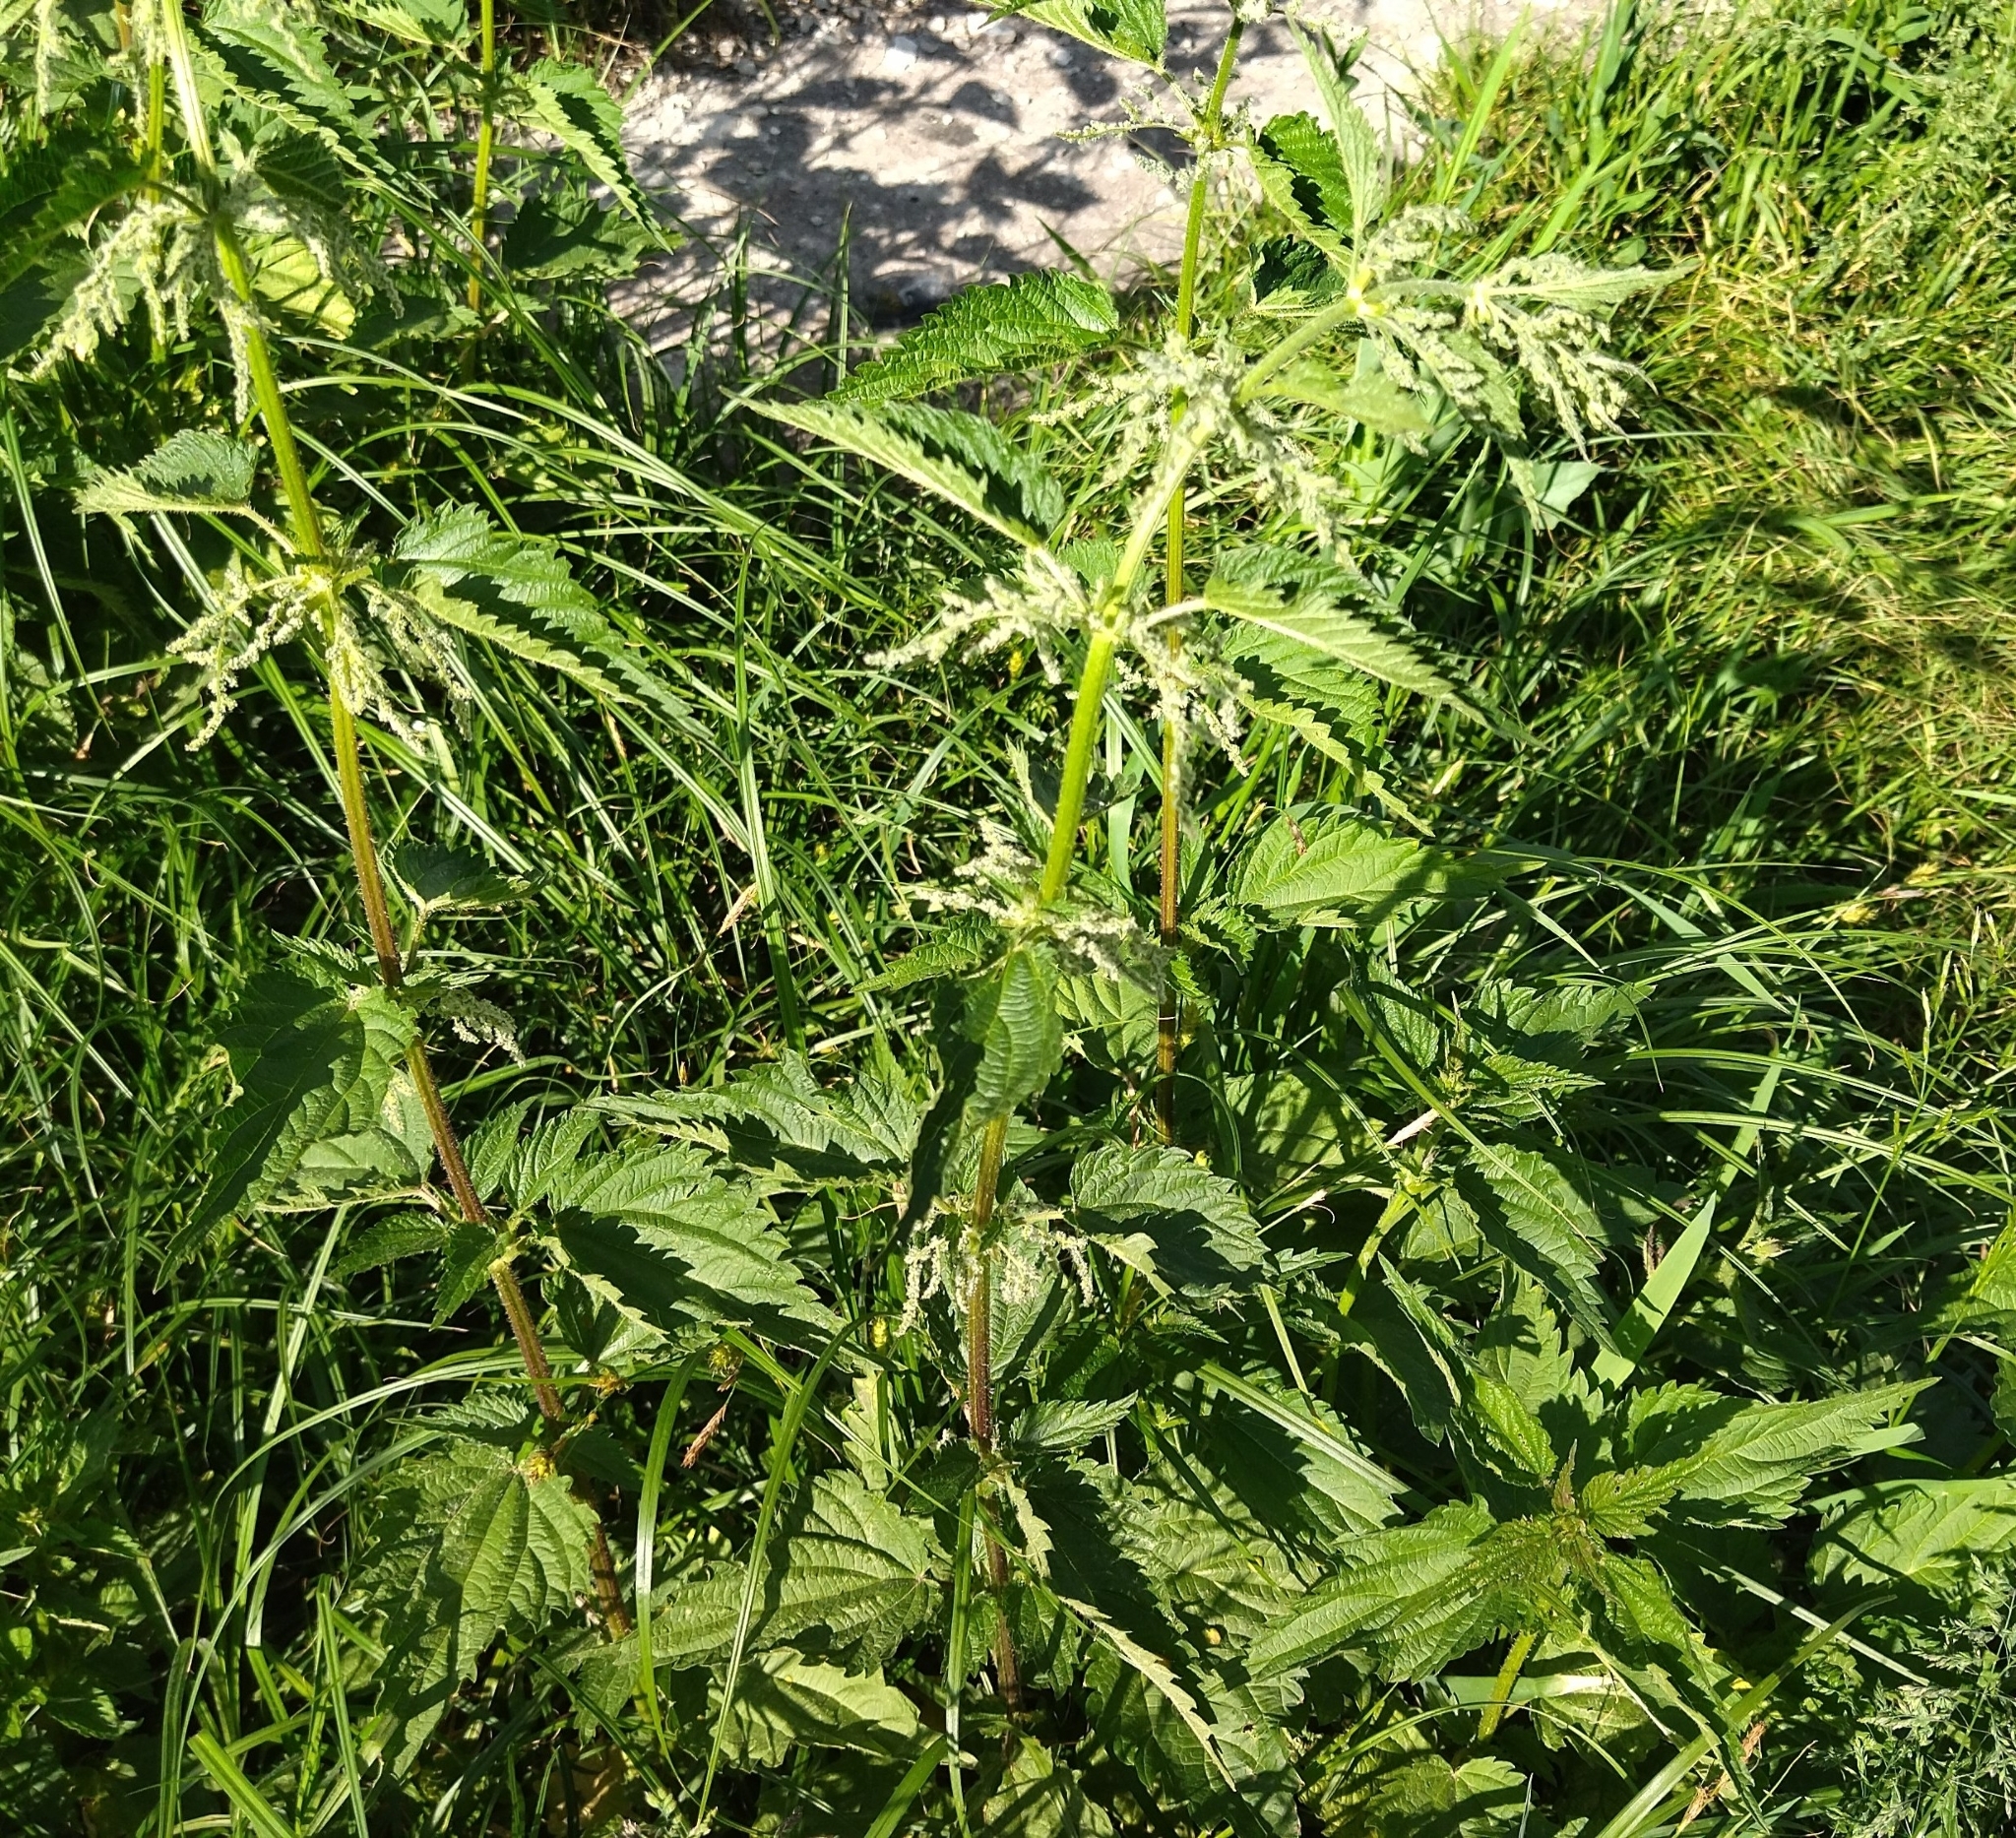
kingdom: Plantae
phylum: Tracheophyta
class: Magnoliopsida
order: Rosales
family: Urticaceae
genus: Urtica
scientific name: Urtica dioica
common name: Common nettle
